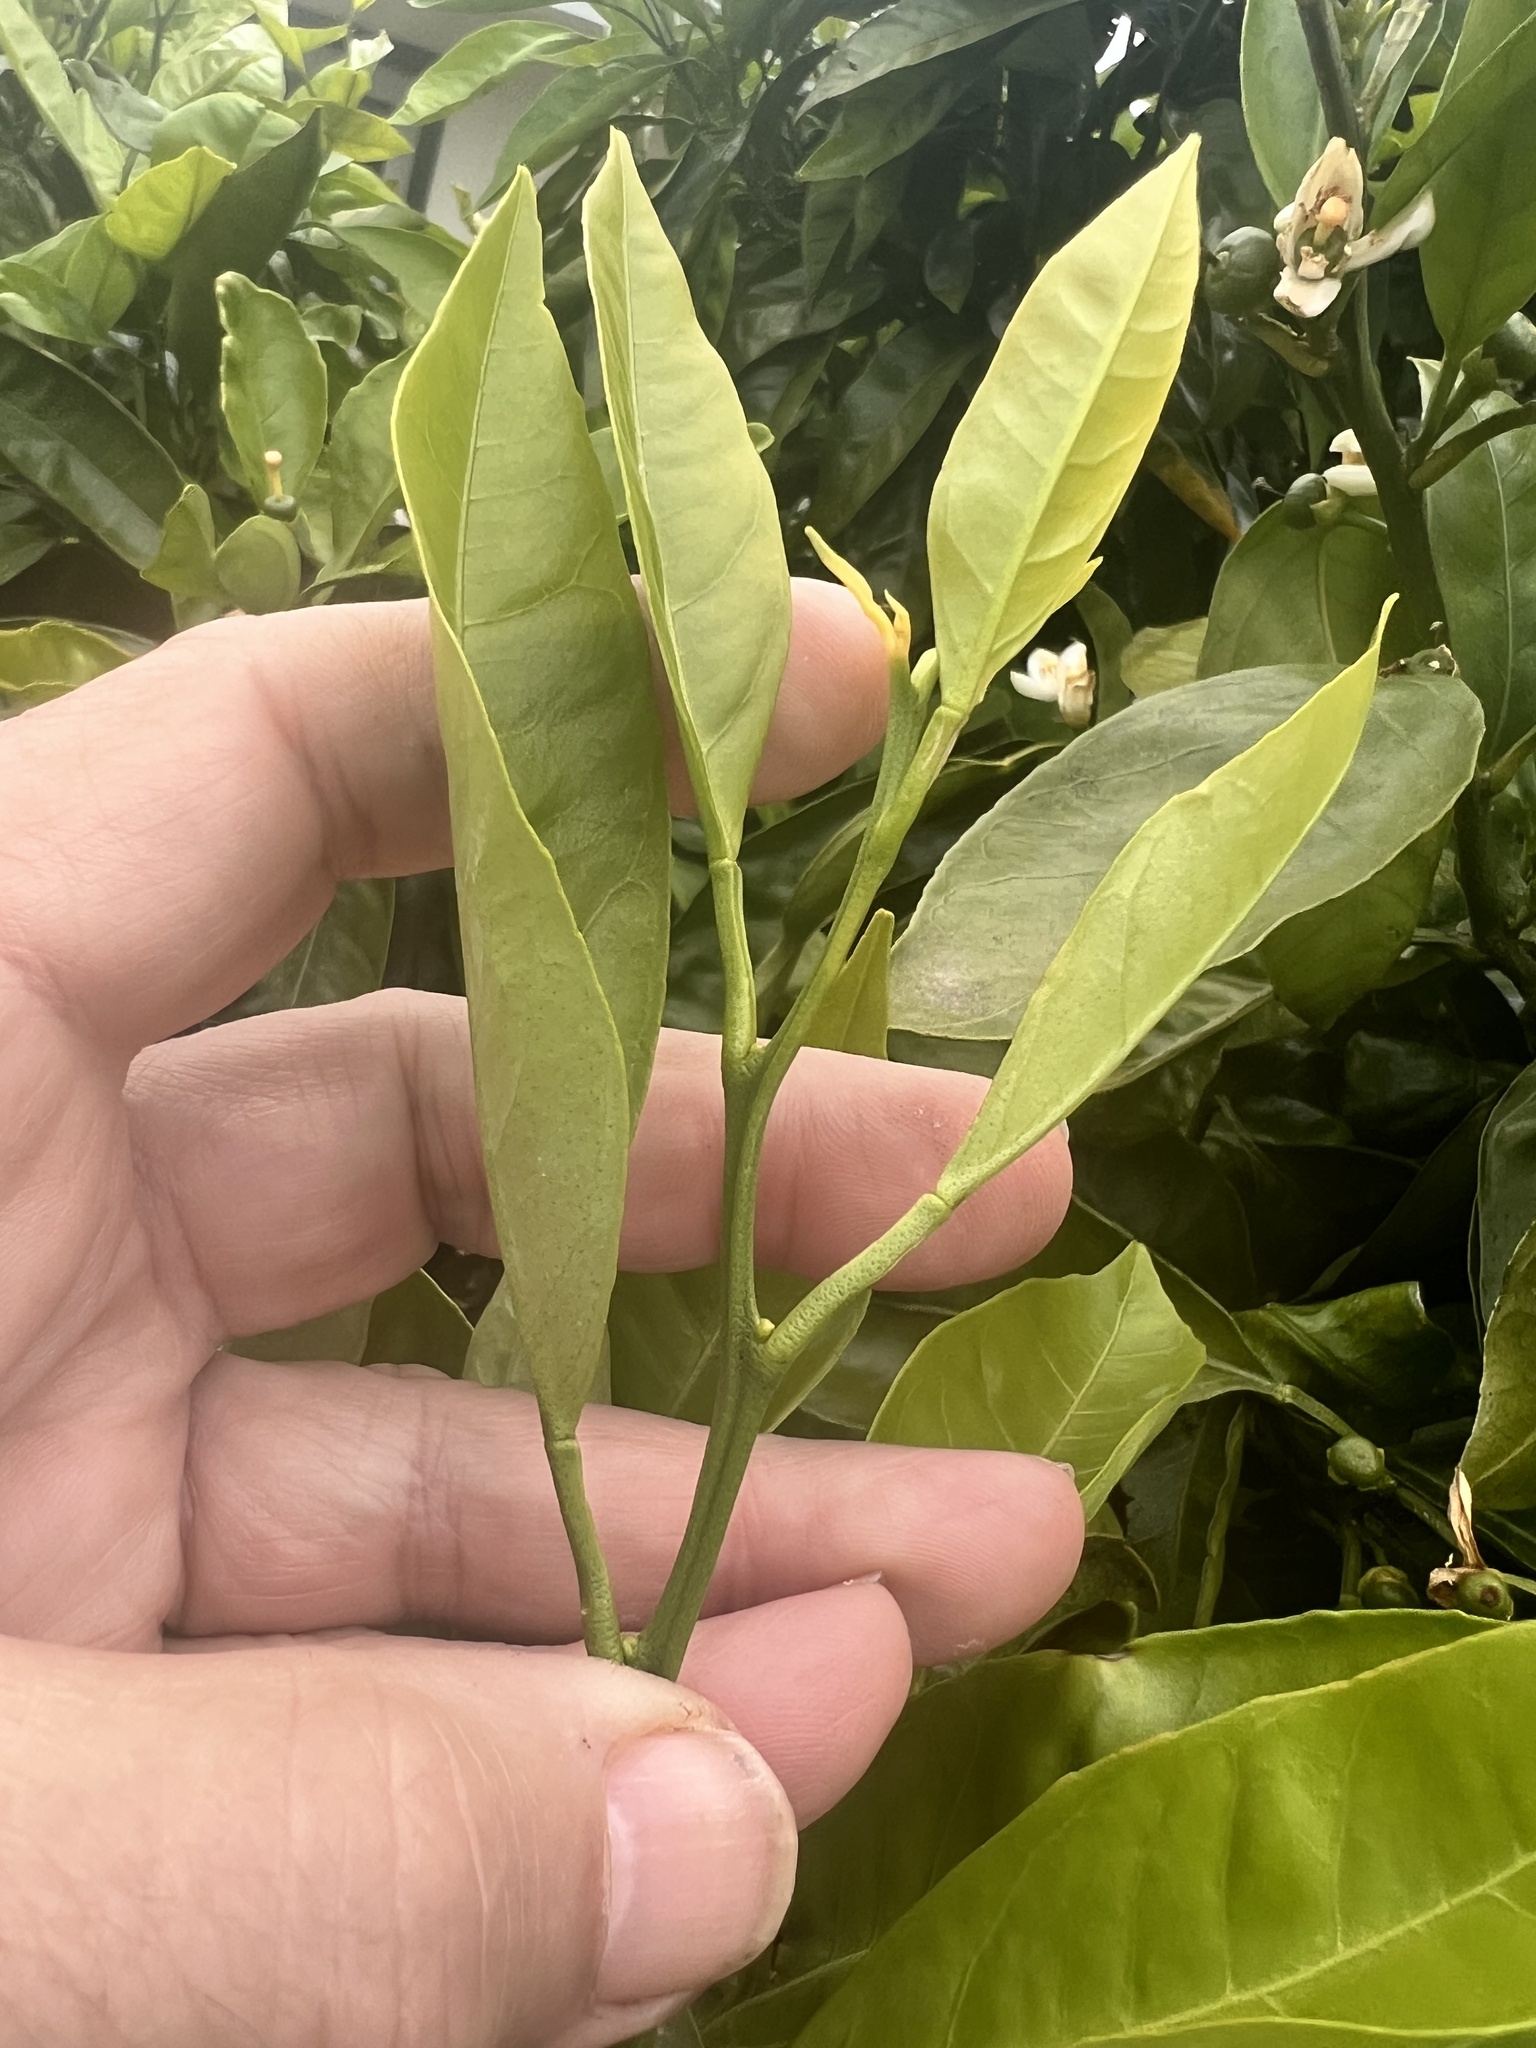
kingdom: Plantae
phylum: Tracheophyta
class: Magnoliopsida
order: Sapindales
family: Rutaceae
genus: Citrus
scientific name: Citrus aurantium
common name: Sour orange
